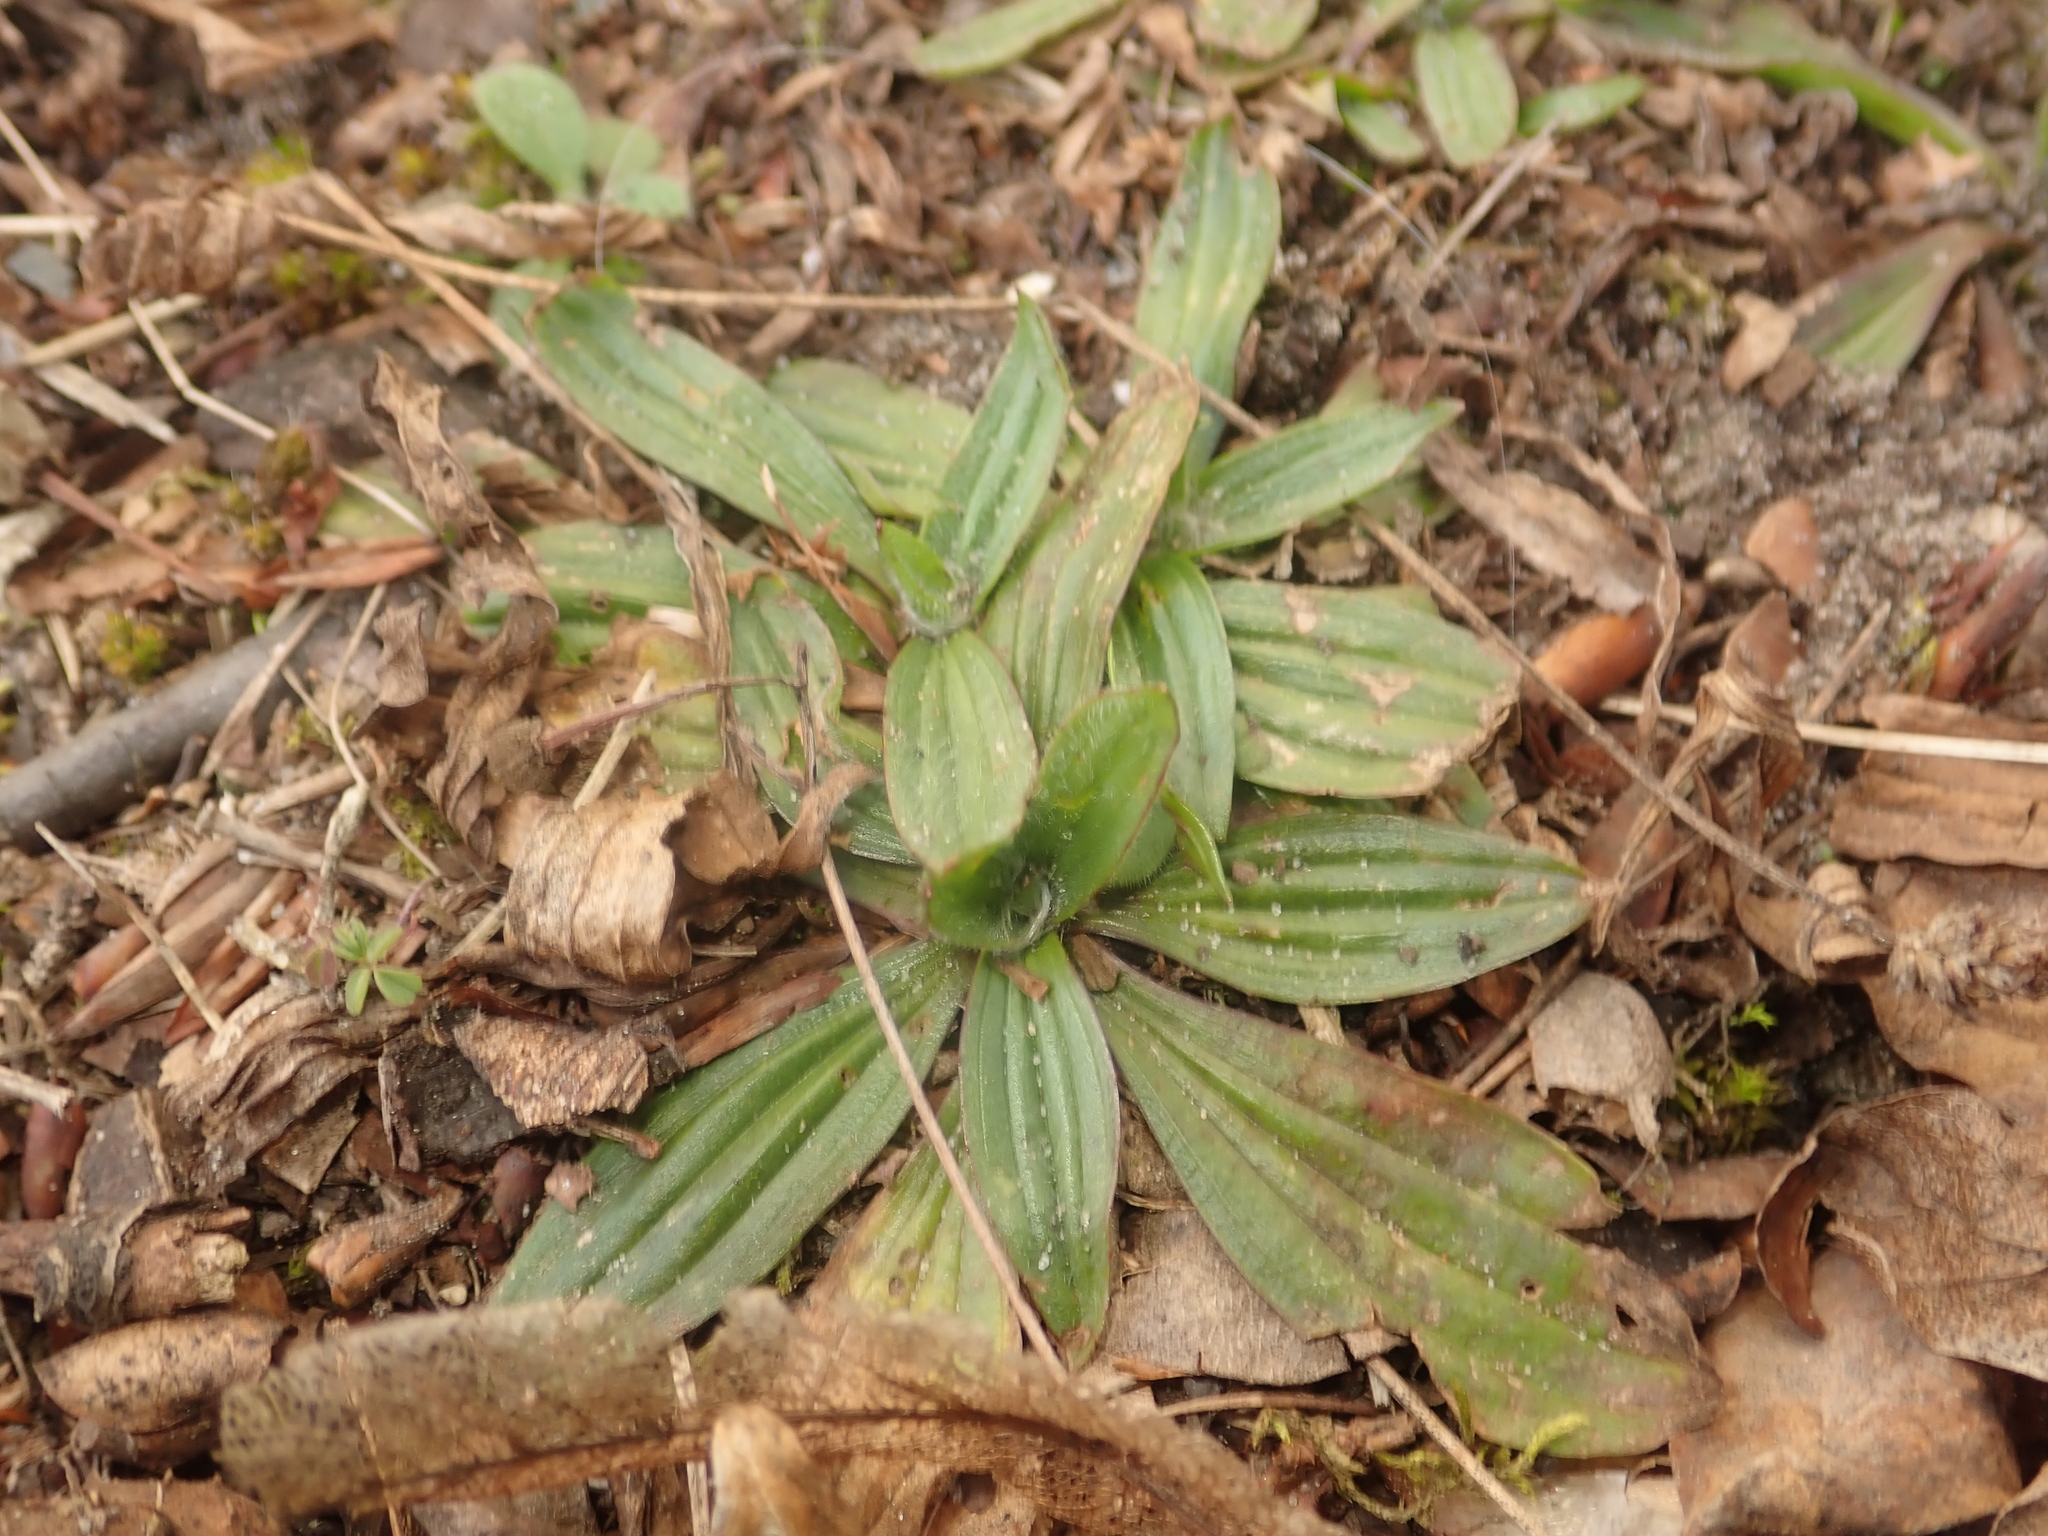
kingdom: Plantae
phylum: Tracheophyta
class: Magnoliopsida
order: Lamiales
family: Plantaginaceae
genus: Plantago
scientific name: Plantago lanceolata
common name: Ribwort plantain
